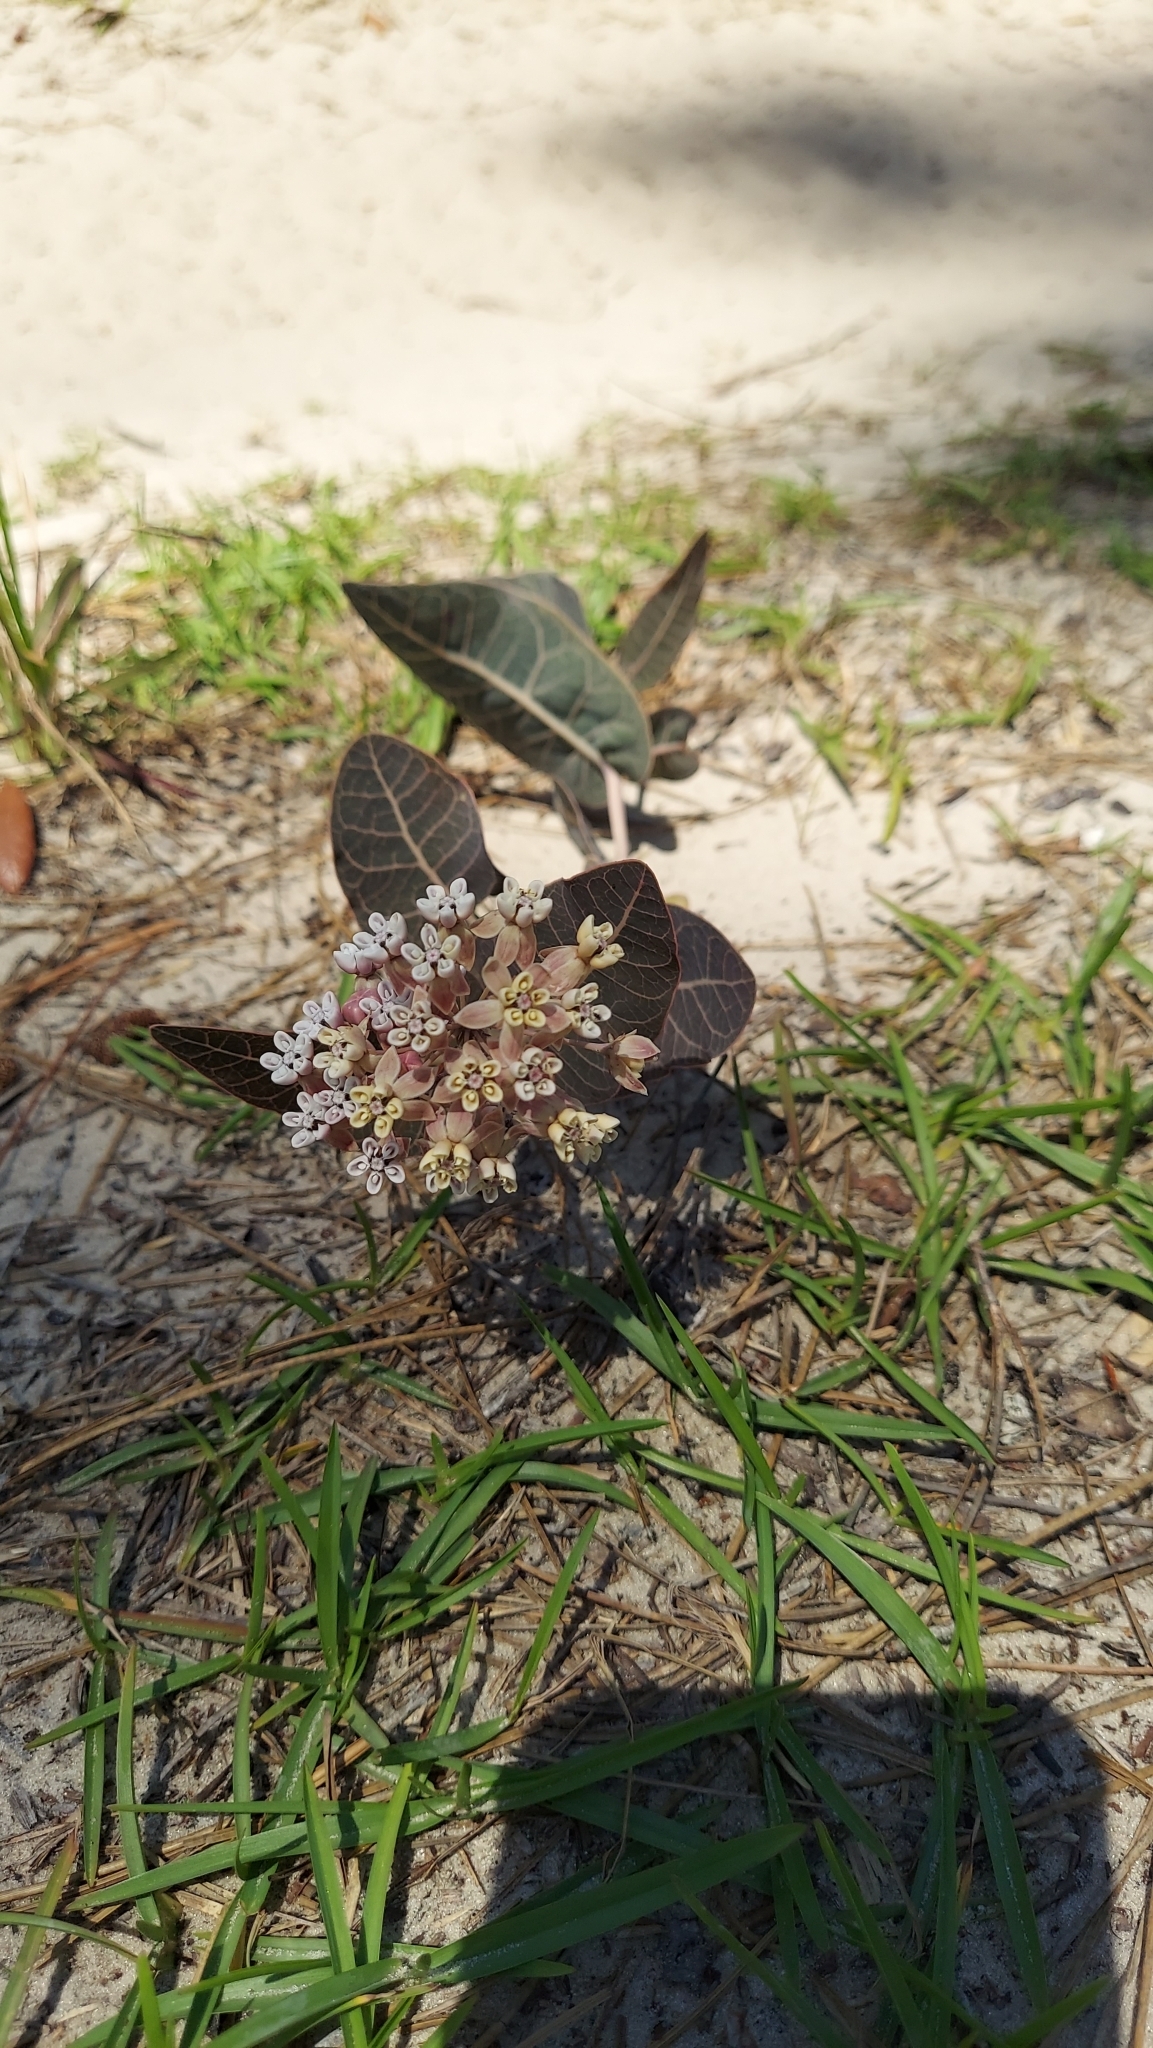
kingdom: Plantae
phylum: Tracheophyta
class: Magnoliopsida
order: Gentianales
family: Apocynaceae
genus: Asclepias
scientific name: Asclepias humistrata
